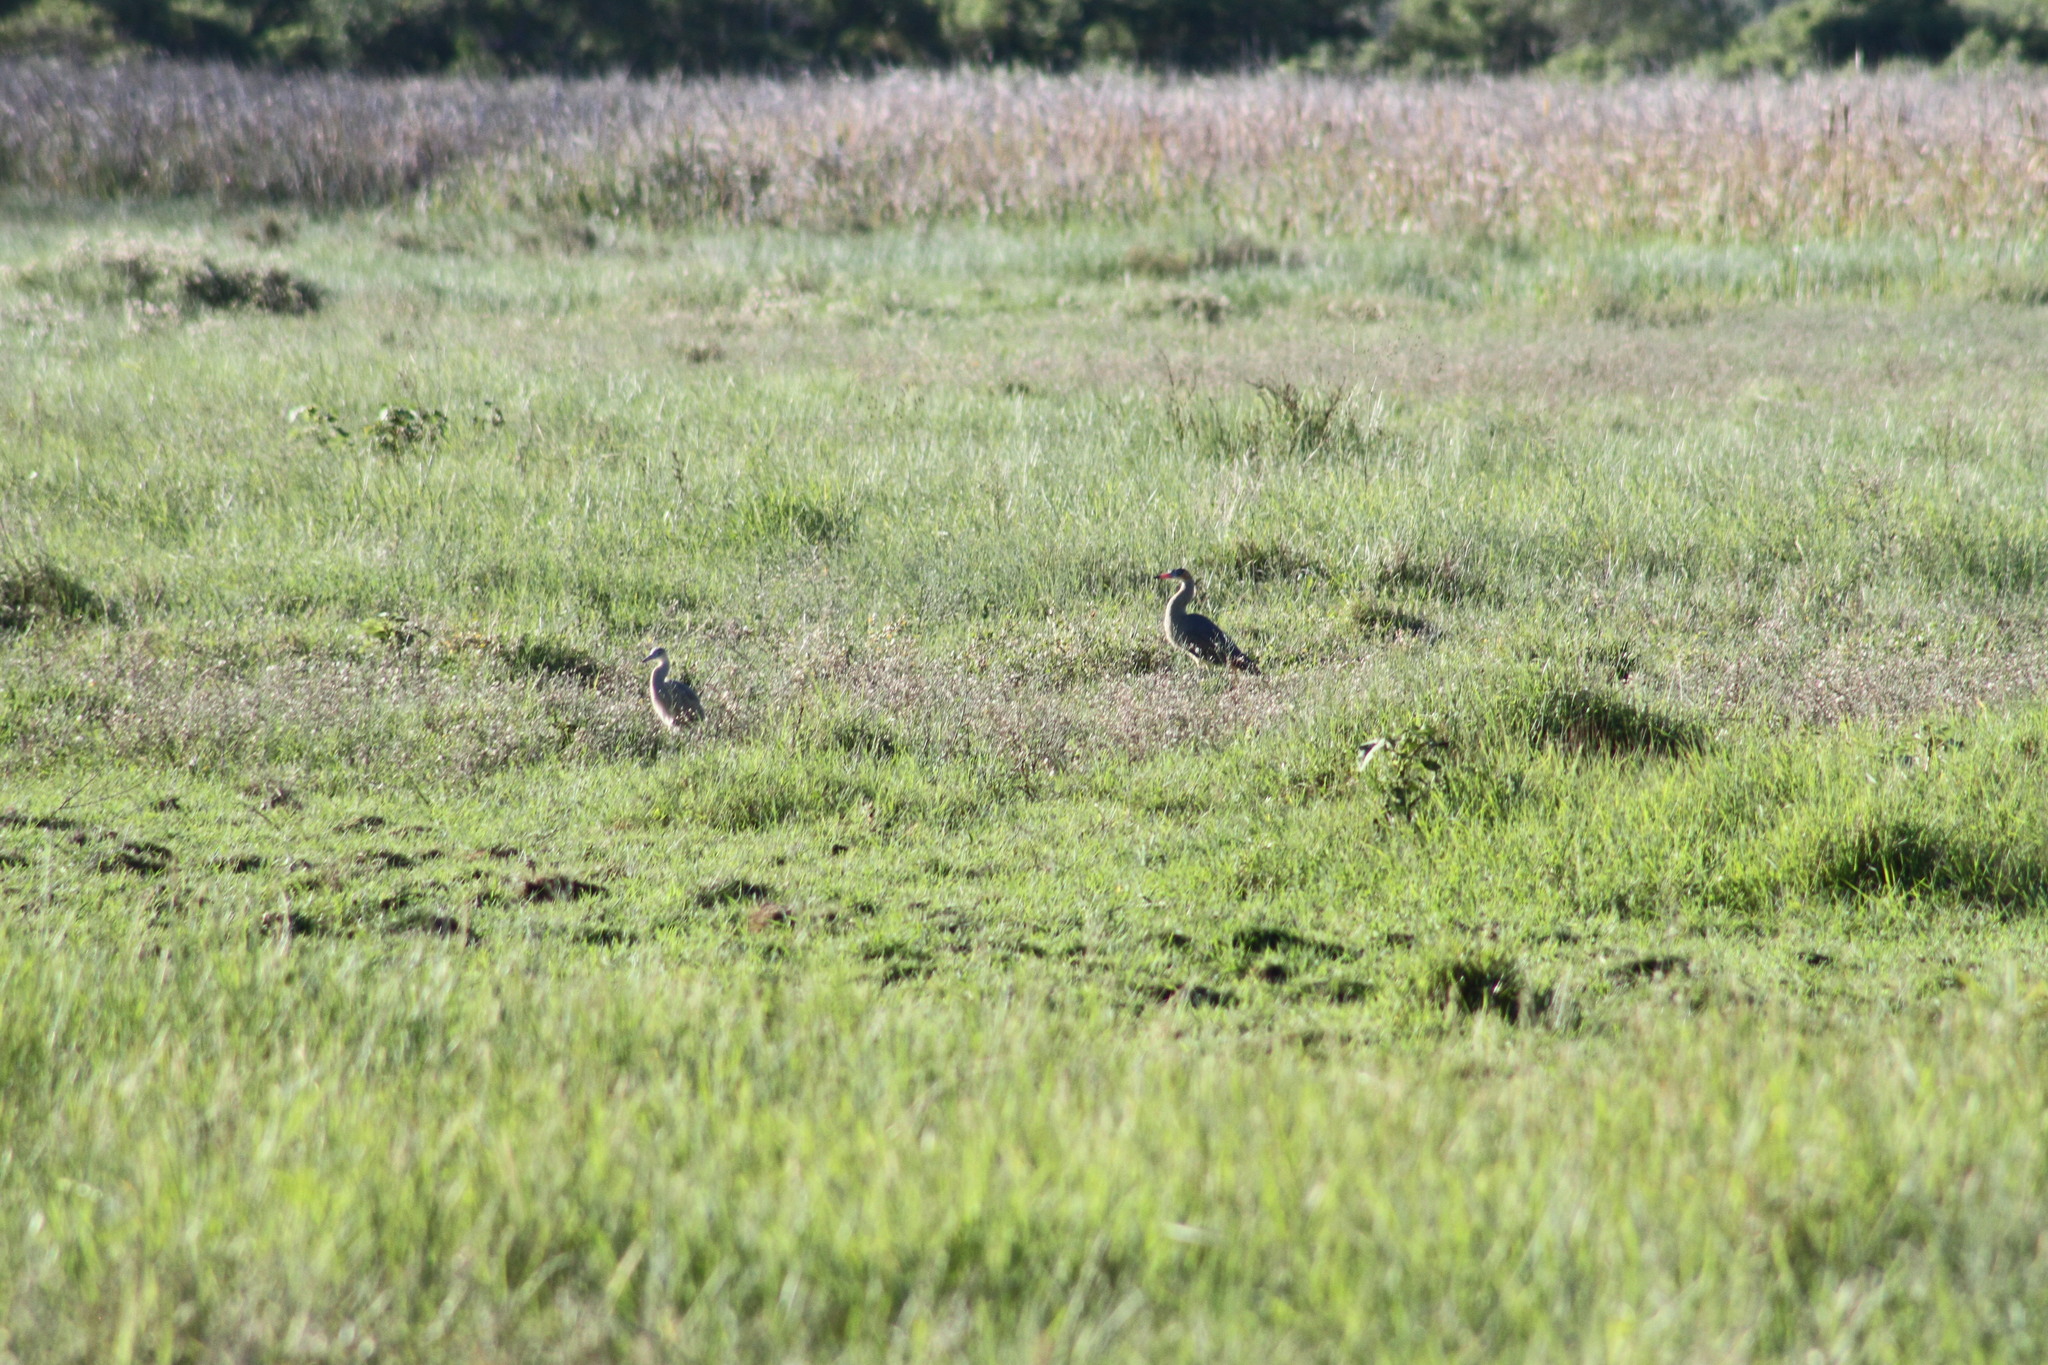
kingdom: Animalia
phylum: Chordata
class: Aves
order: Pelecaniformes
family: Ardeidae
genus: Syrigma
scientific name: Syrigma sibilatrix
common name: Whistling heron
